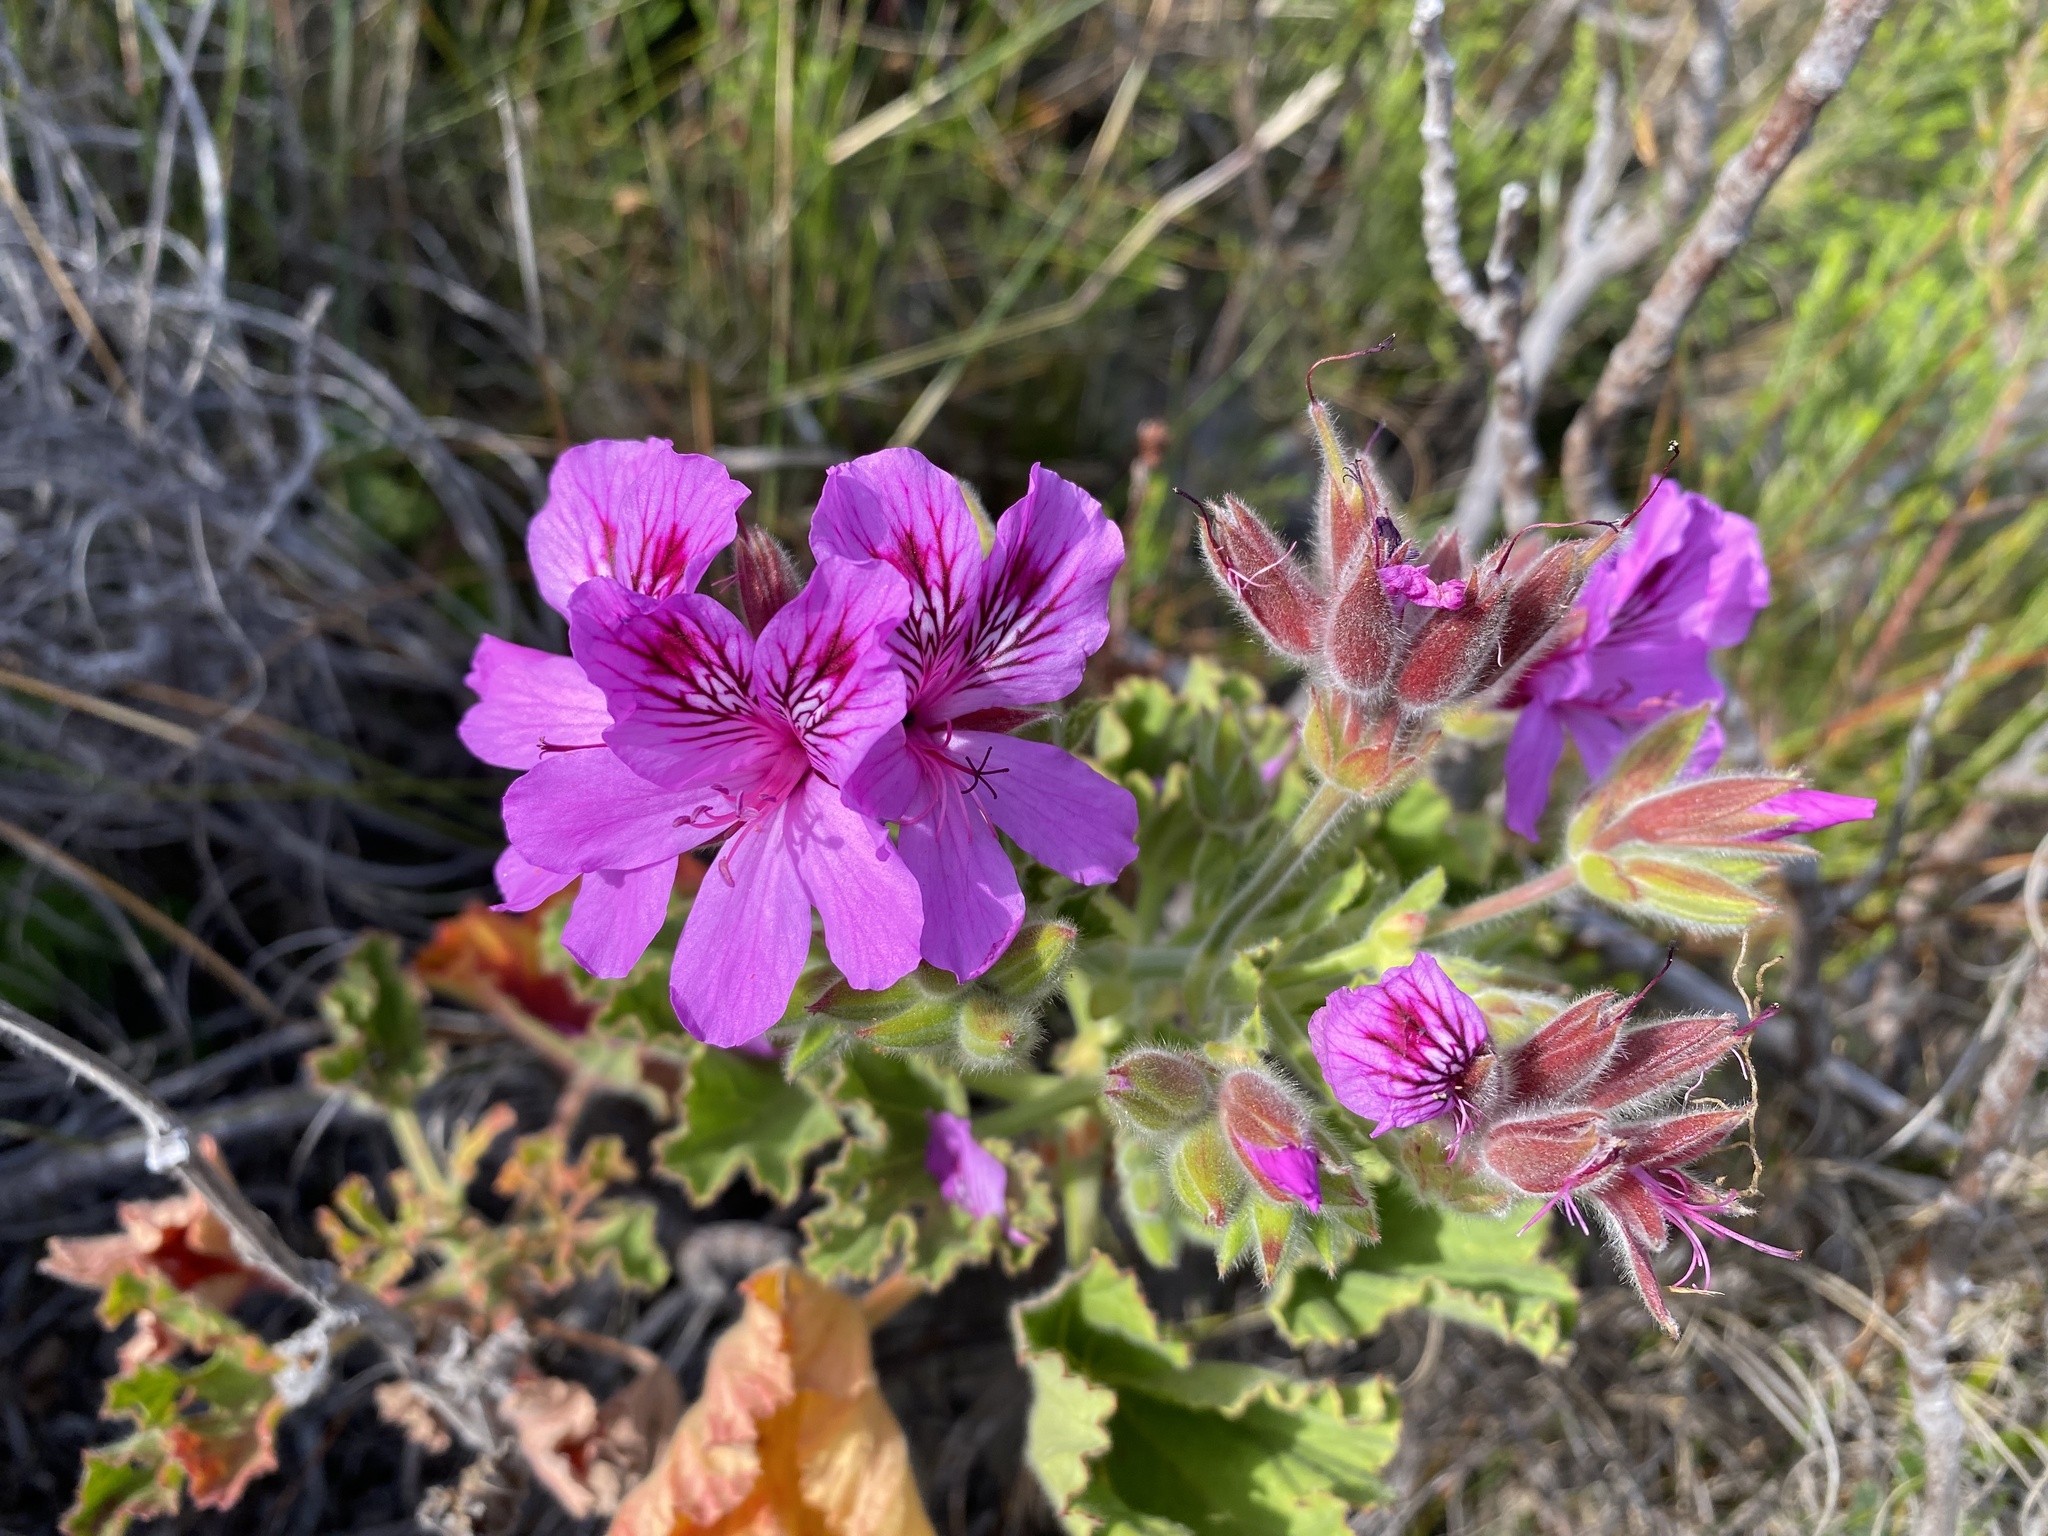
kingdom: Plantae
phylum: Tracheophyta
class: Magnoliopsida
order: Geraniales
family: Geraniaceae
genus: Pelargonium
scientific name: Pelargonium cucullatum
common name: Tree pelargonium
